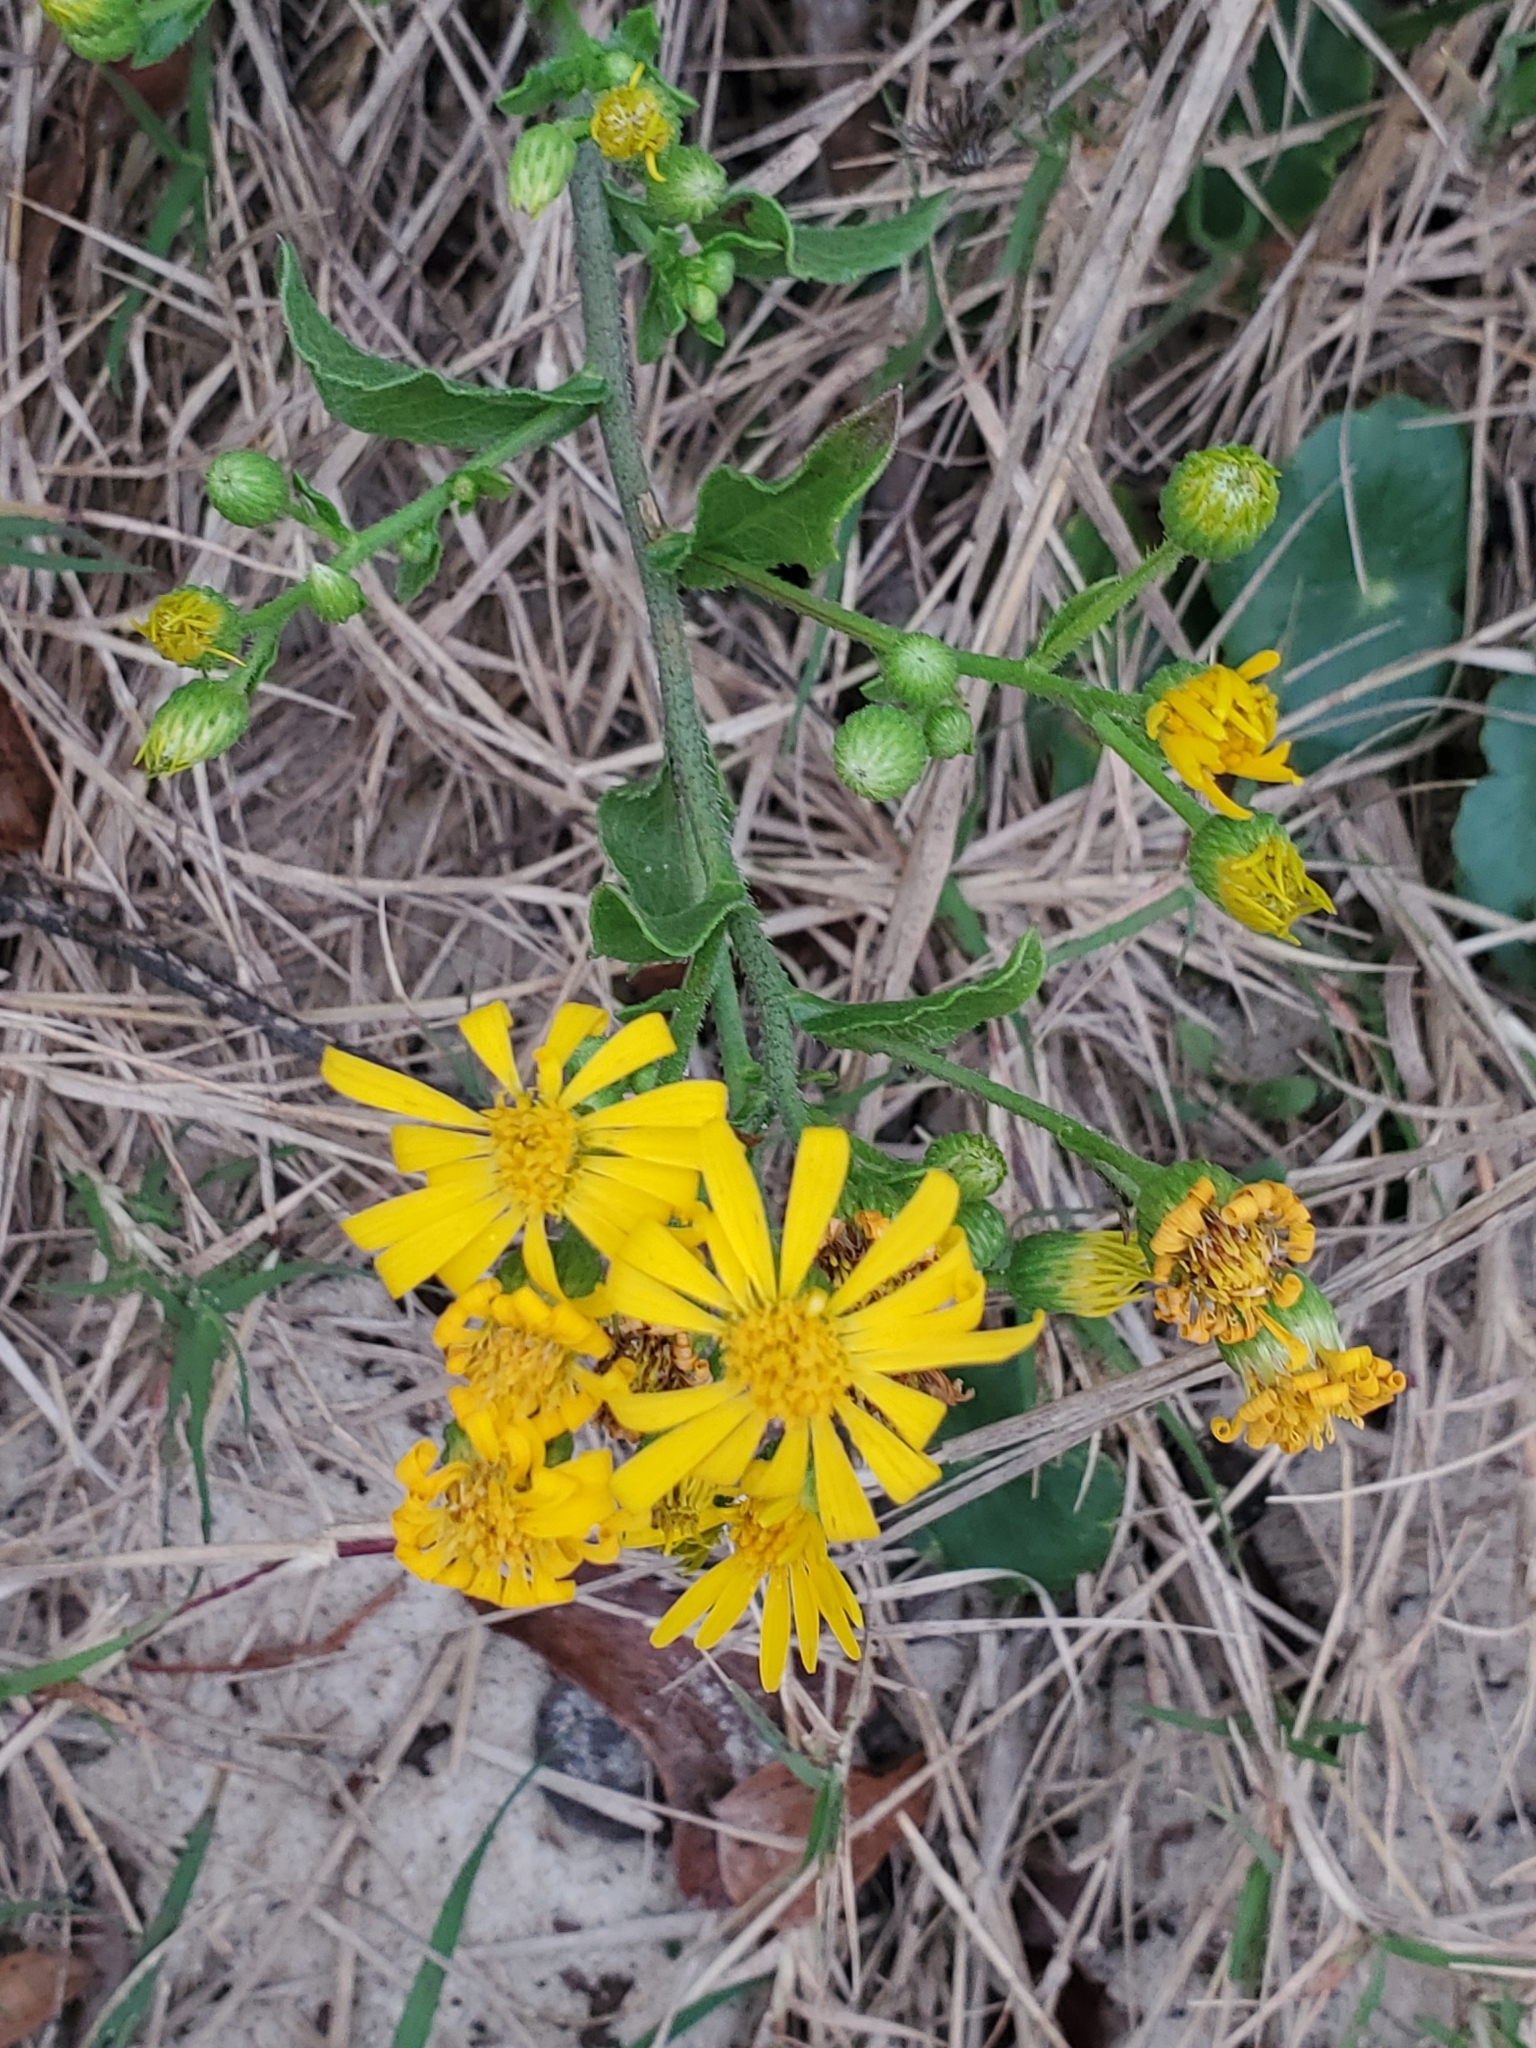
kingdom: Plantae
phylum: Tracheophyta
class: Magnoliopsida
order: Asterales
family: Asteraceae
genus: Heterotheca
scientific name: Heterotheca subaxillaris
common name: Camphorweed
